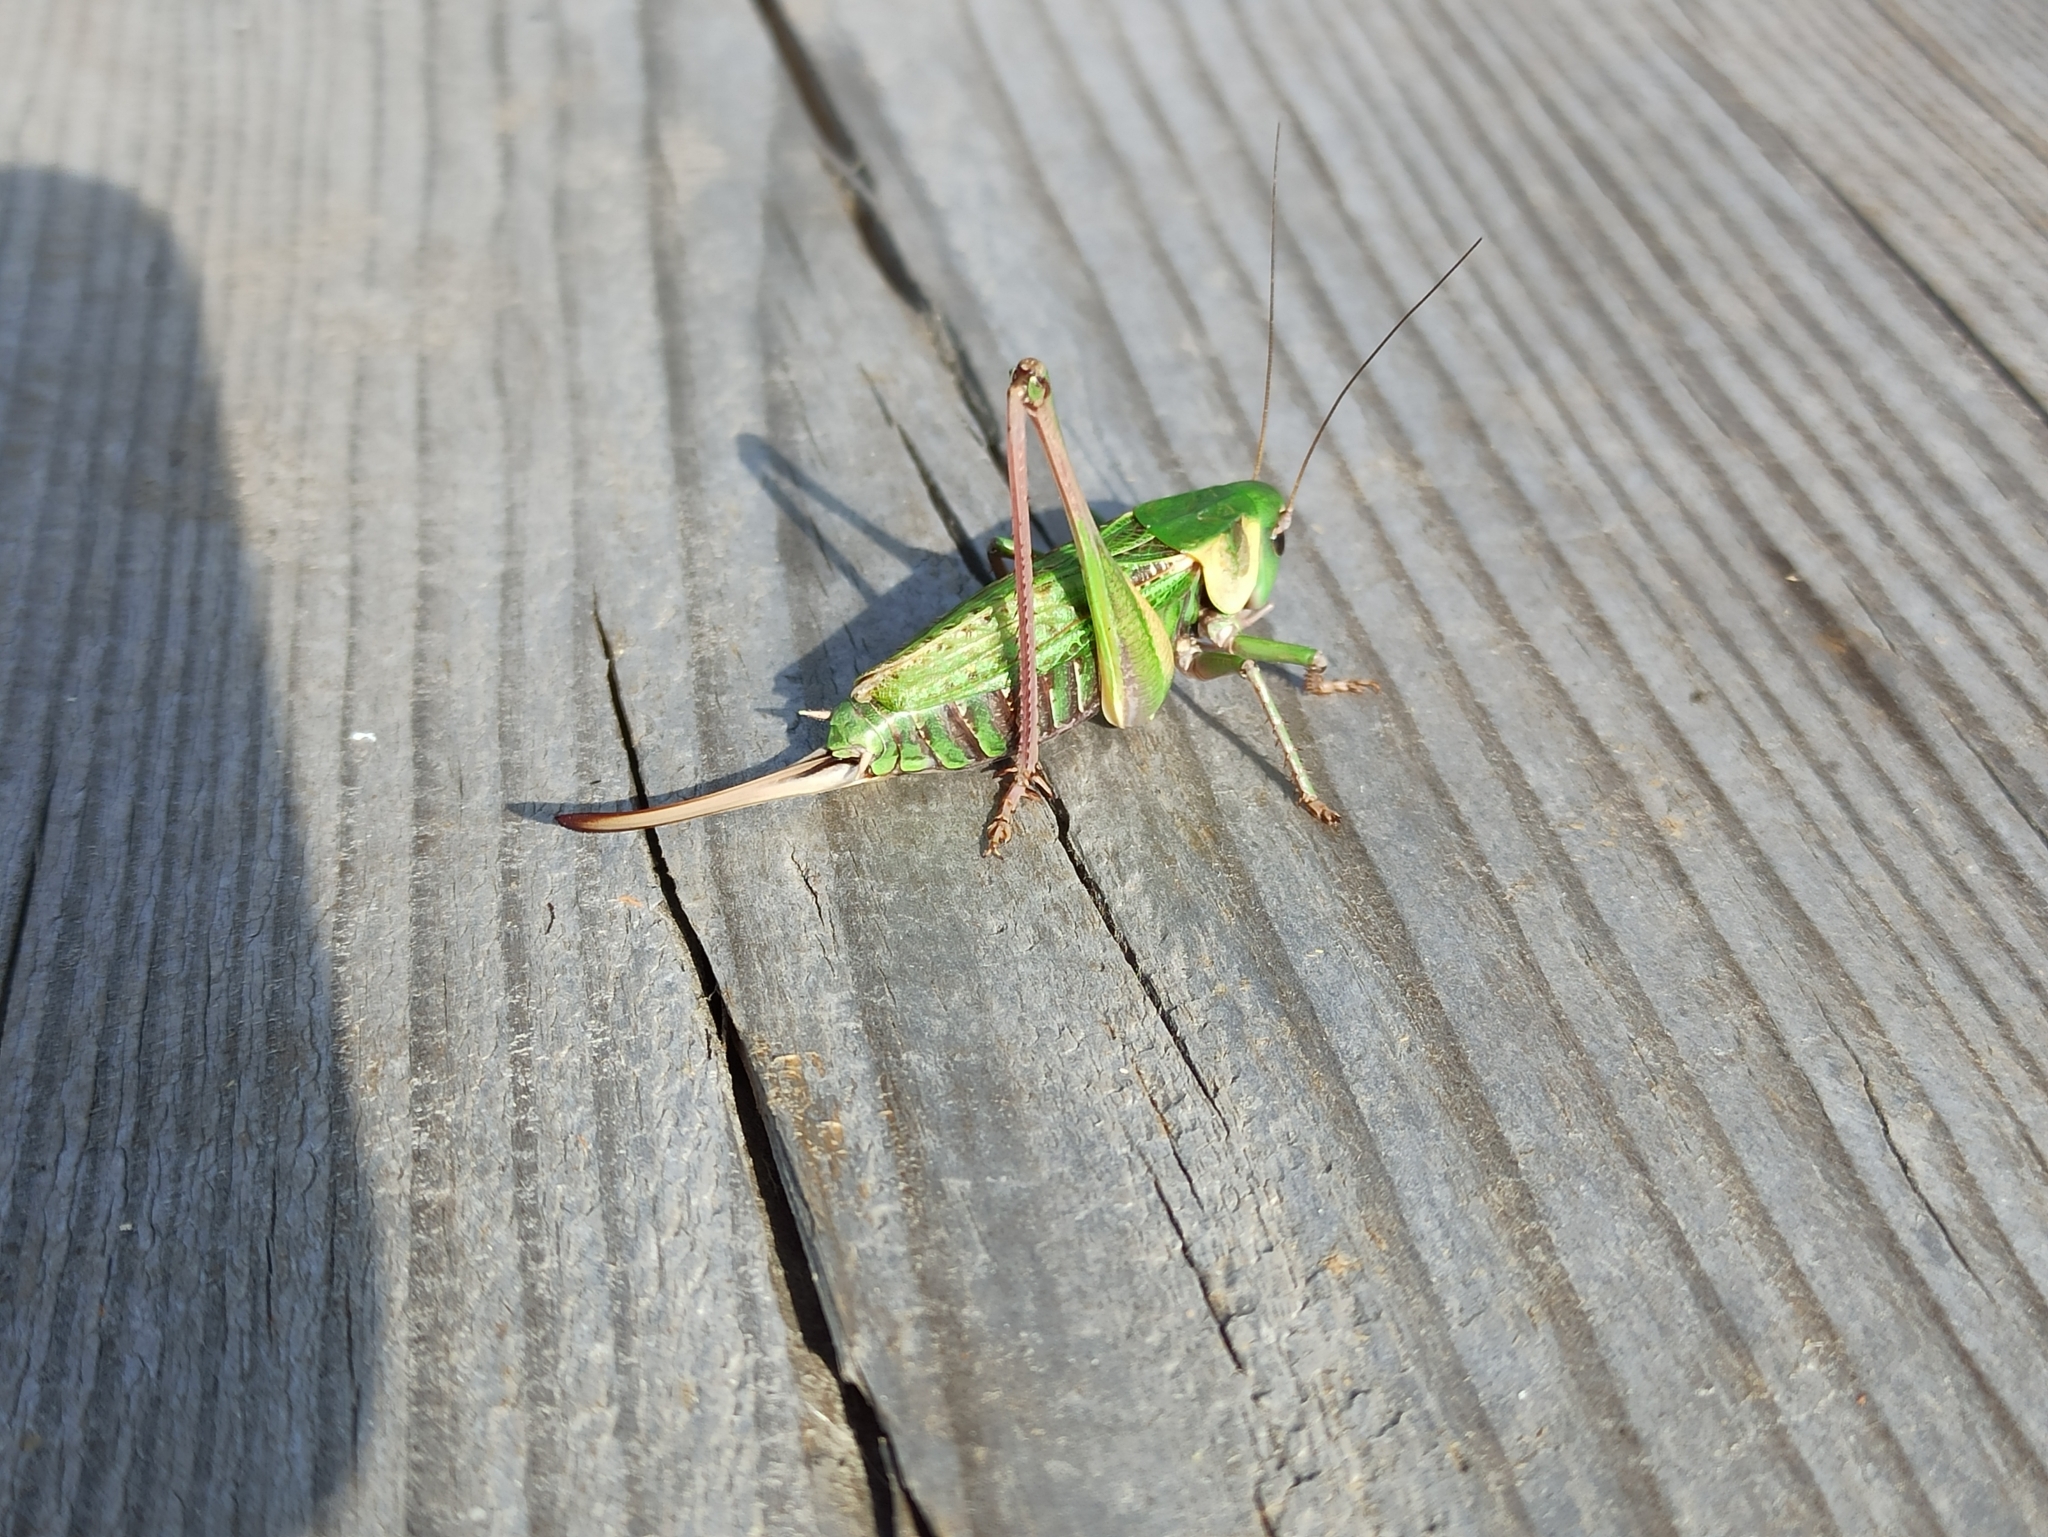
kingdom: Animalia
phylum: Arthropoda
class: Insecta
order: Orthoptera
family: Tettigoniidae
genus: Decticus
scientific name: Decticus verrucivorus
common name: Wart-biter
